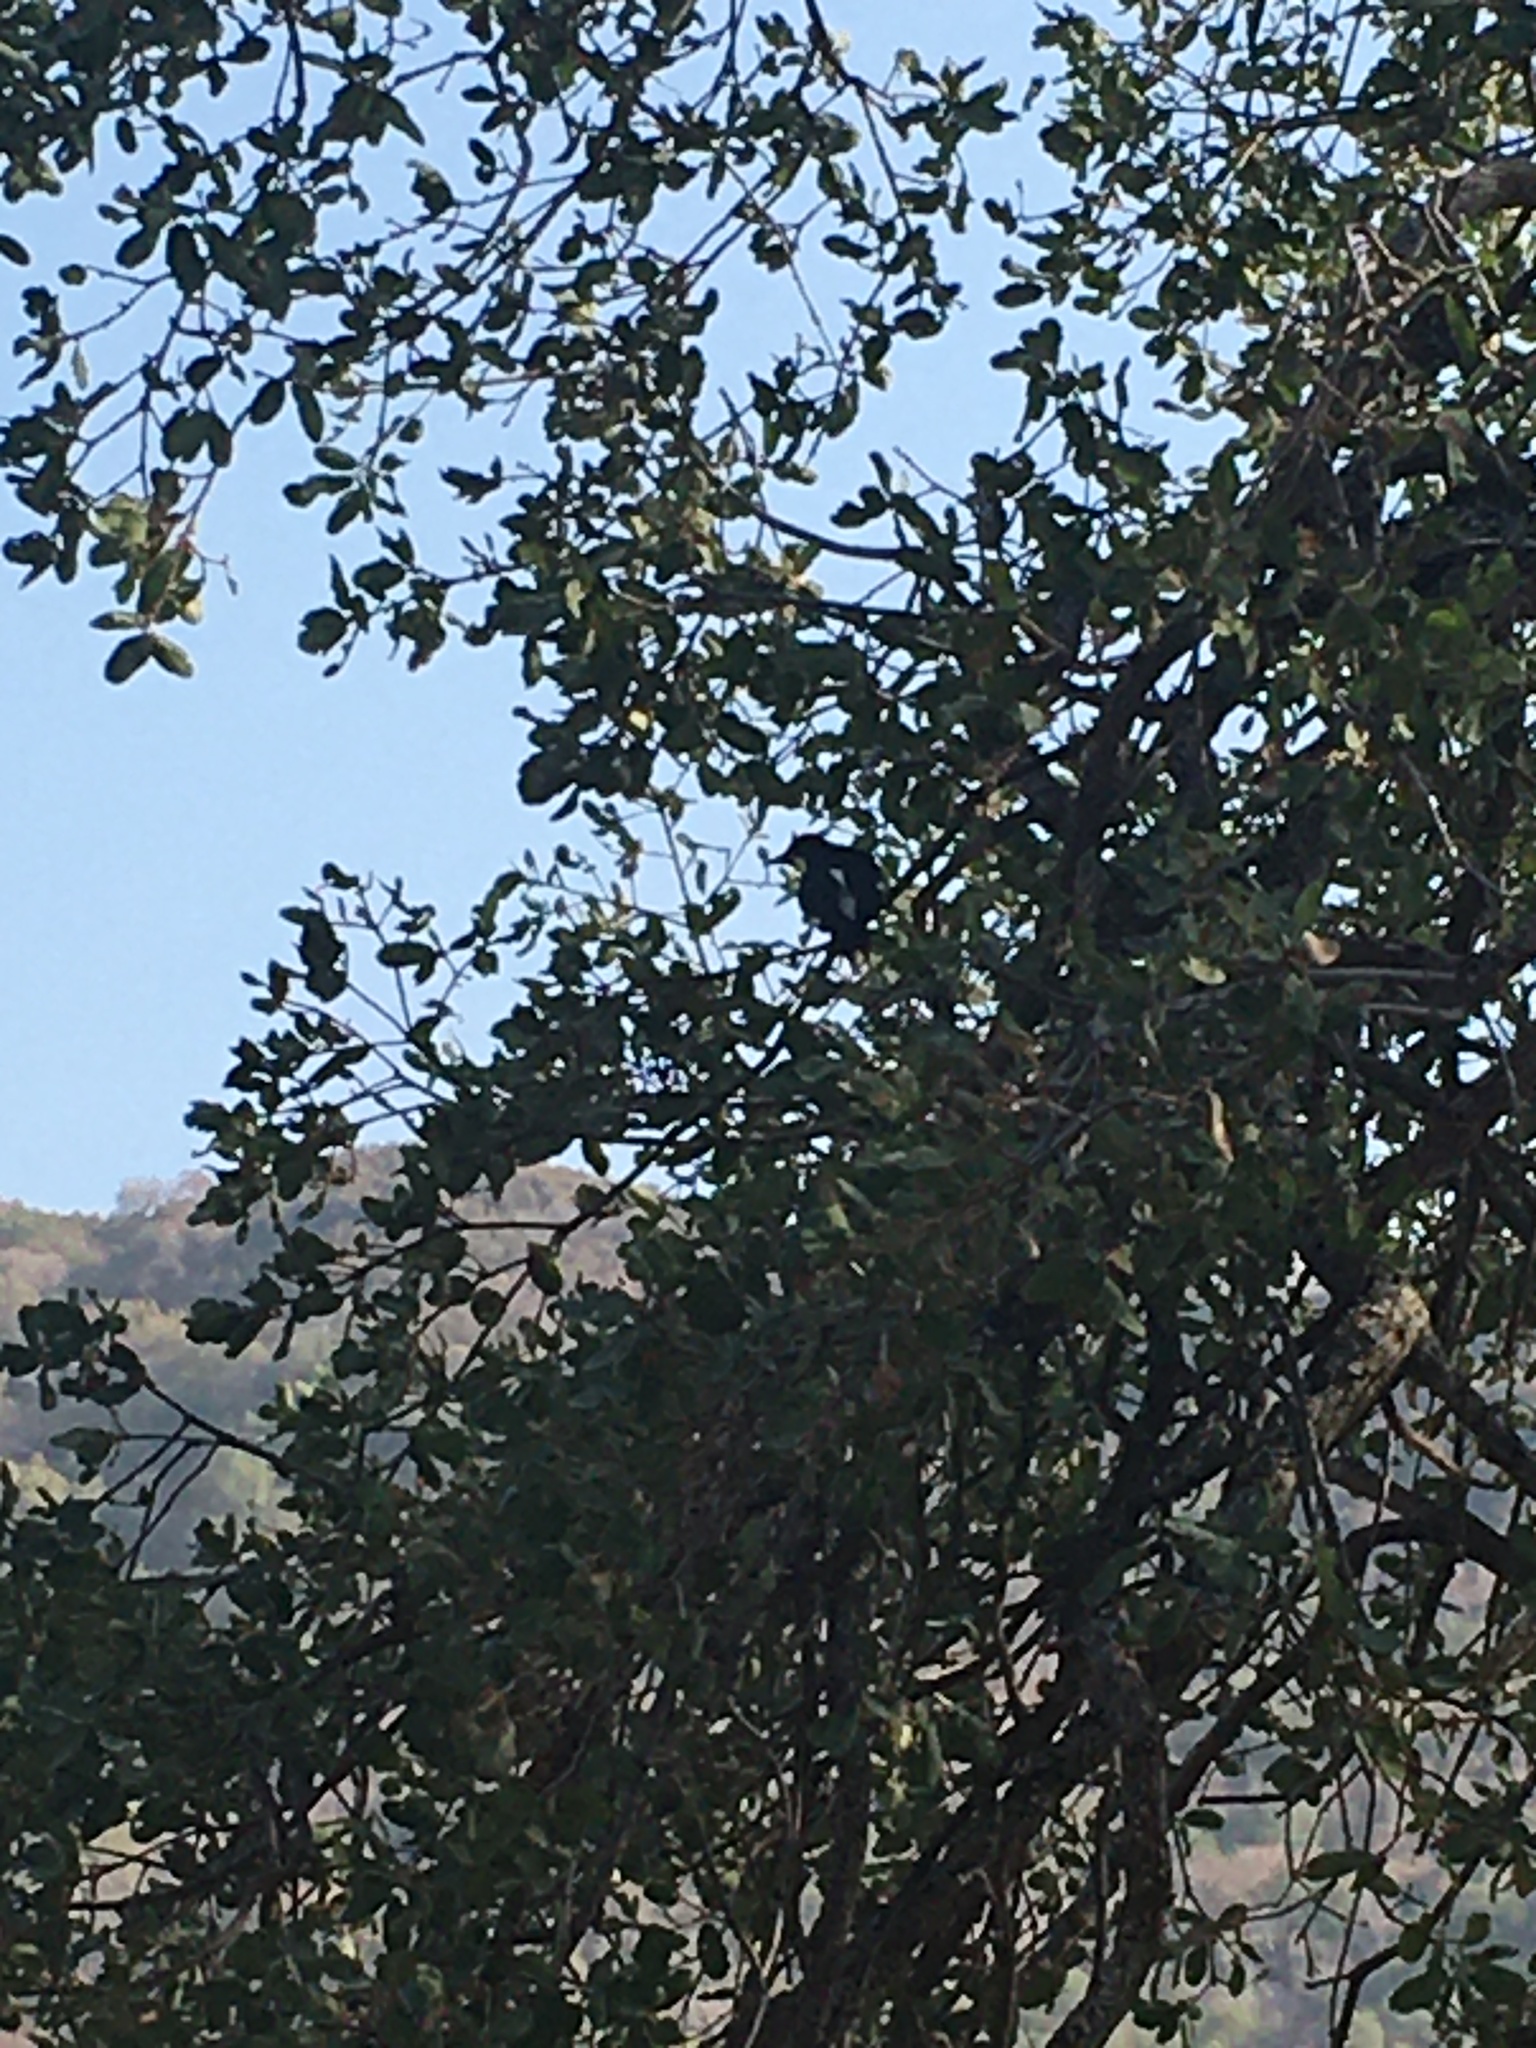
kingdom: Animalia
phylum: Chordata
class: Aves
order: Piciformes
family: Picidae
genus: Melanerpes
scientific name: Melanerpes formicivorus
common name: Acorn woodpecker
